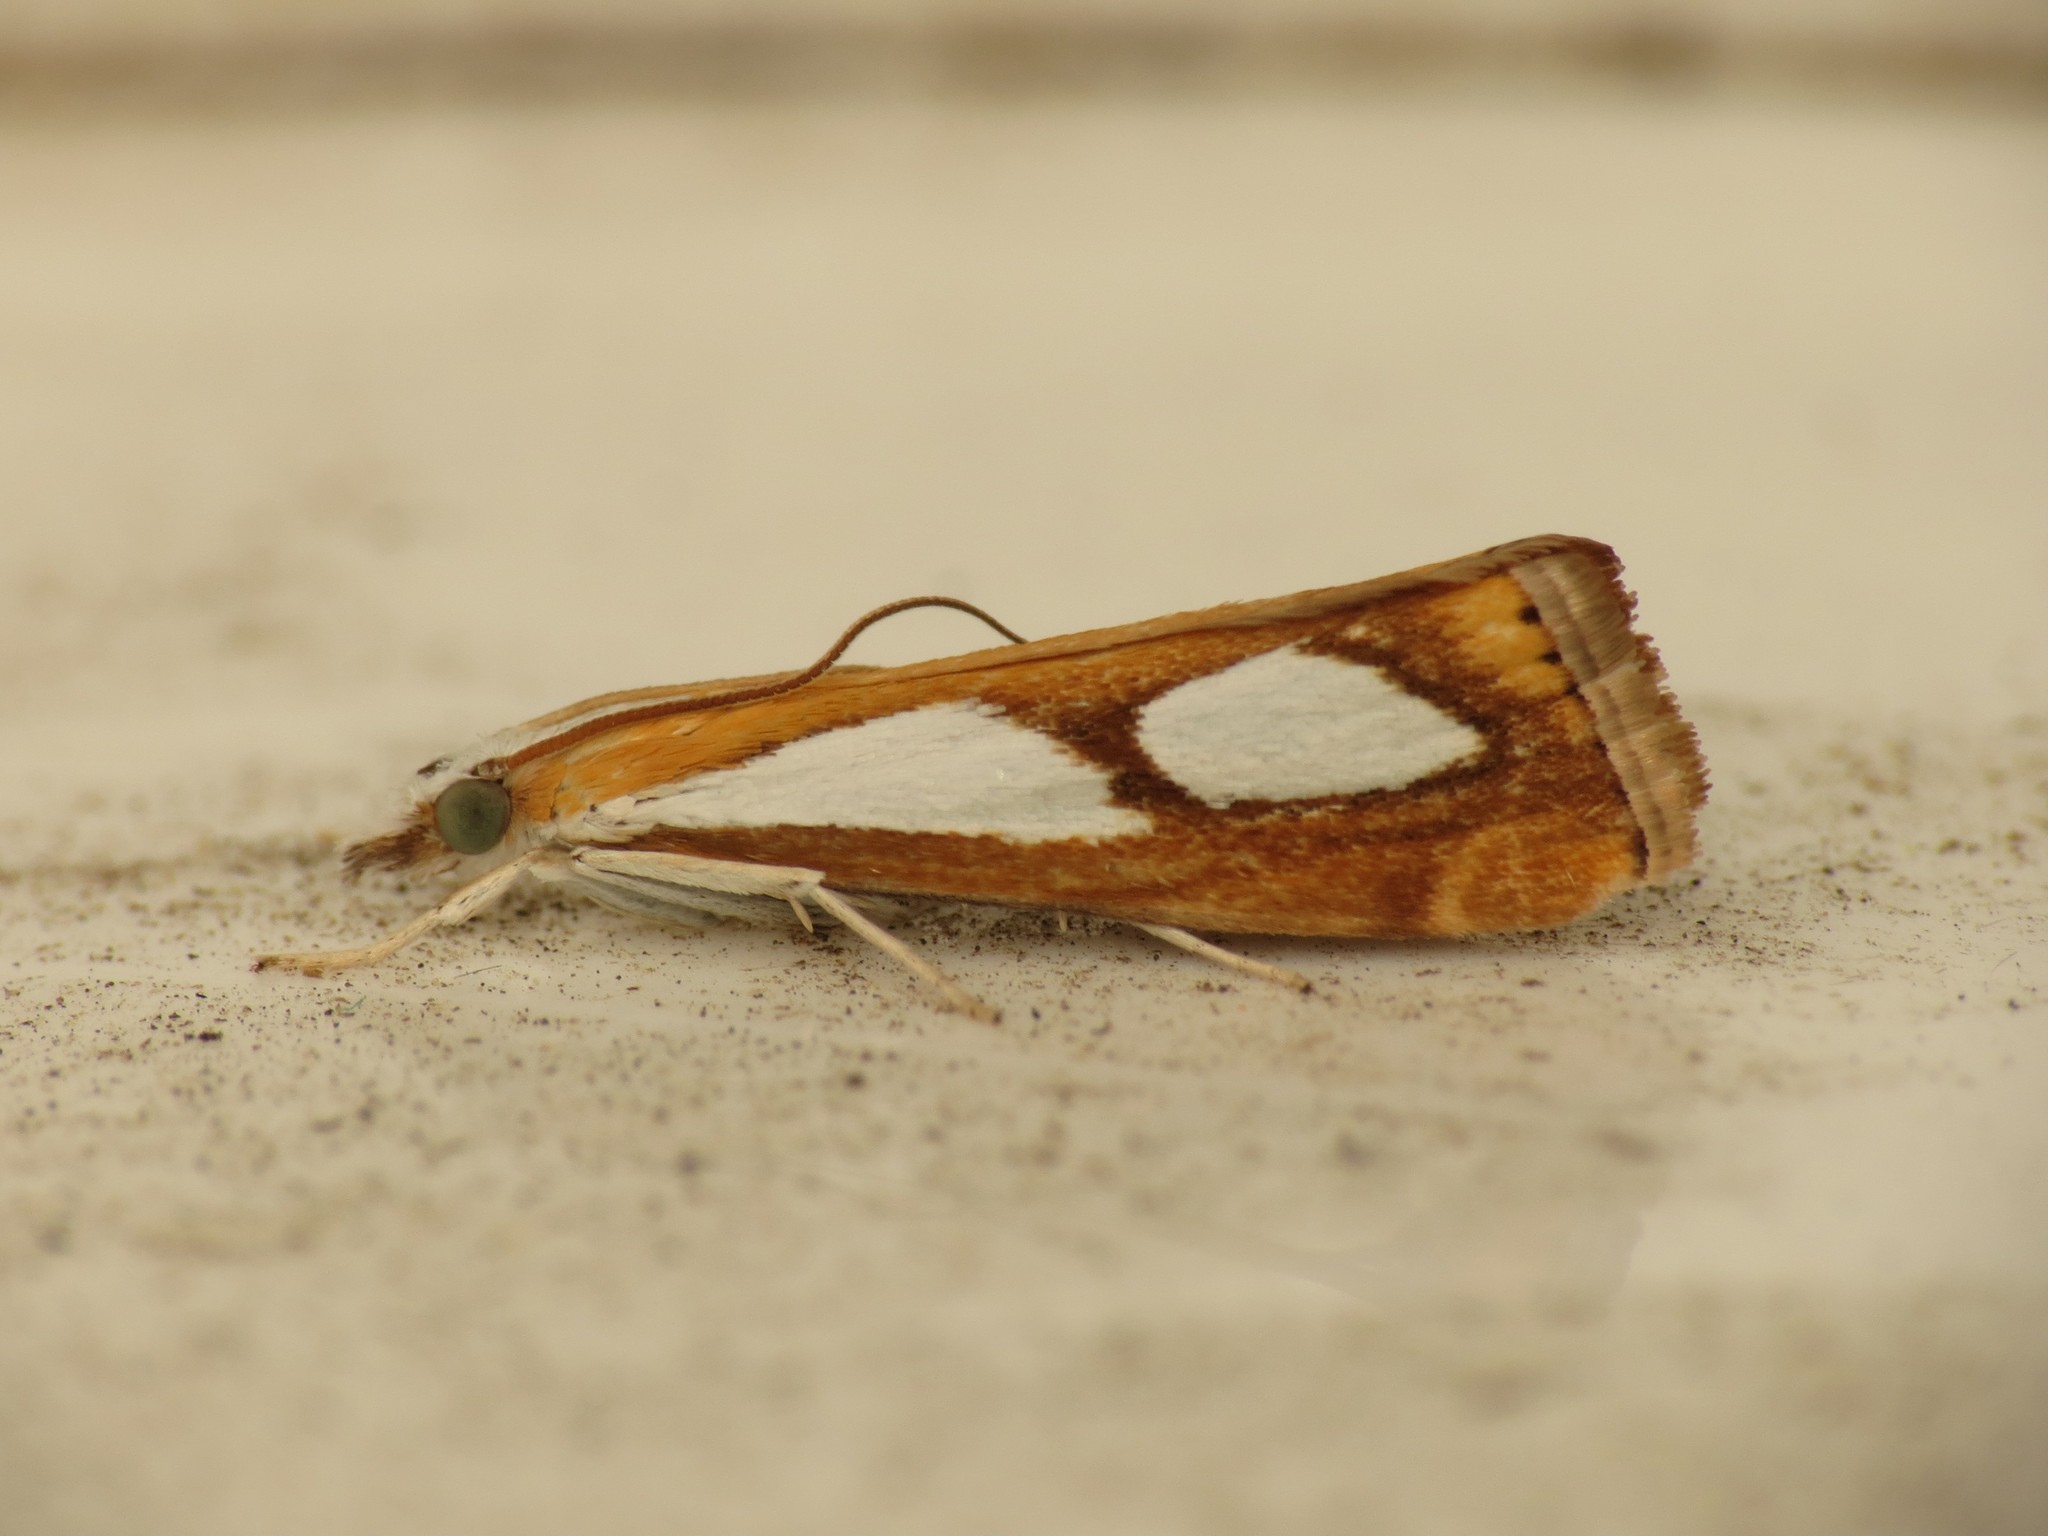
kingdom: Animalia
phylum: Arthropoda
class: Insecta
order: Lepidoptera
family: Crambidae
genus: Catoptria
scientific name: Catoptria pinella
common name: Pearl grass-veneer
